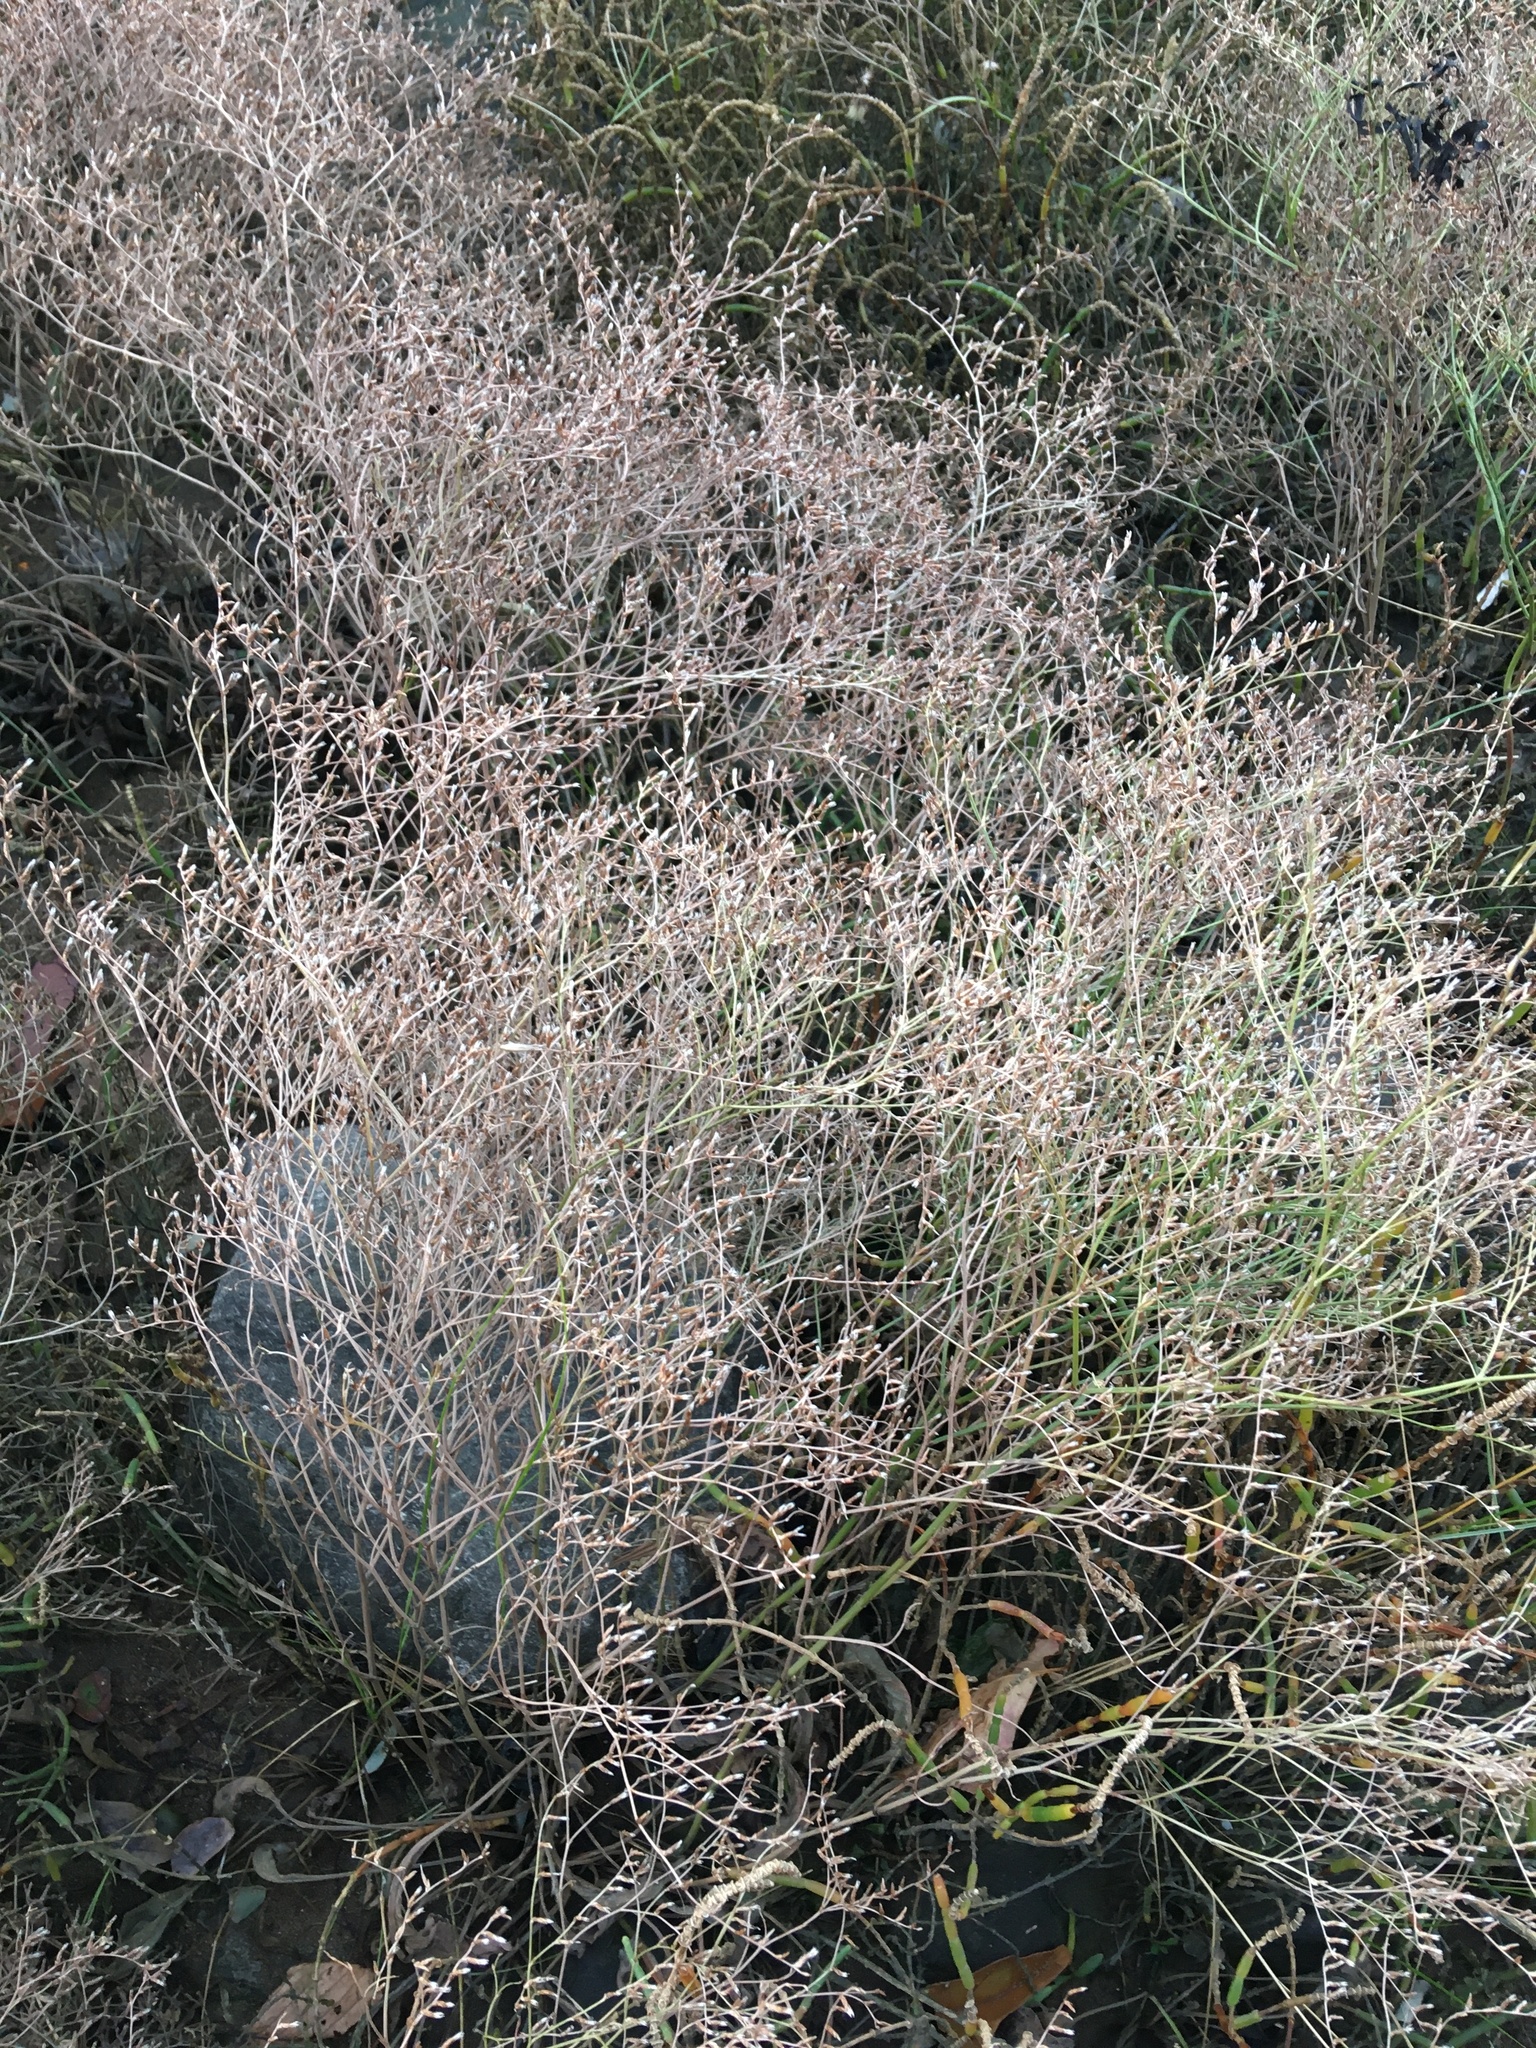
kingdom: Plantae
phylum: Tracheophyta
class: Magnoliopsida
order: Caryophyllales
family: Plumbaginaceae
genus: Limonium
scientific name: Limonium carolinianum
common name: Carolina sea lavender
